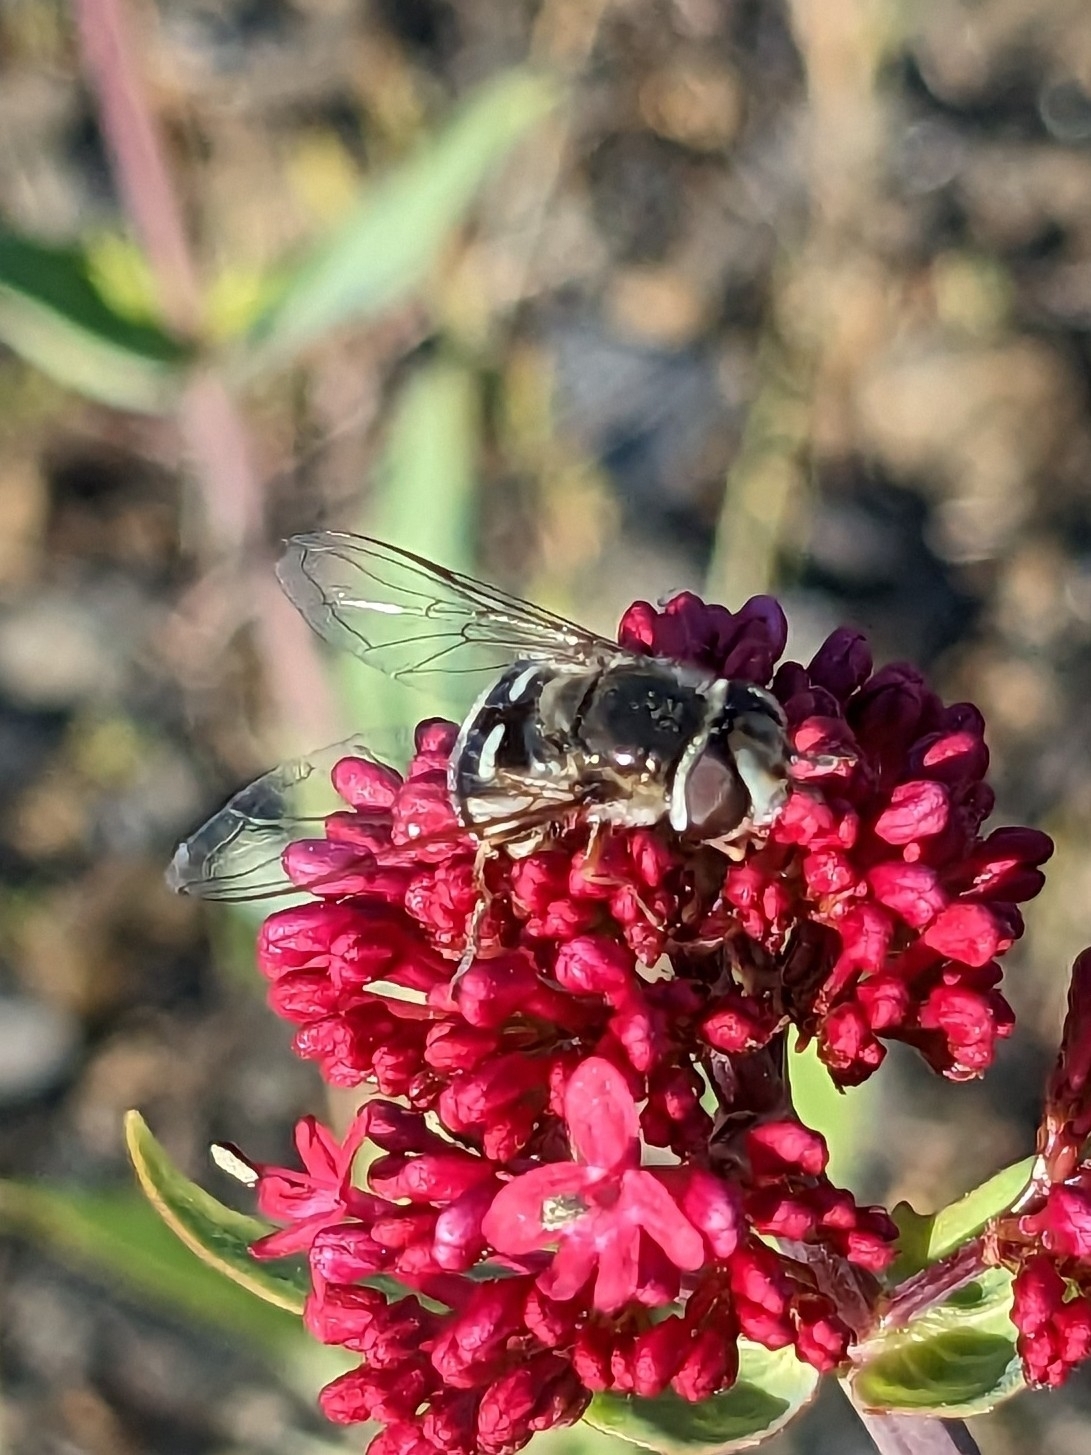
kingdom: Animalia
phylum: Arthropoda
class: Insecta
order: Diptera
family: Syrphidae
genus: Scaeva
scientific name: Scaeva affinis
